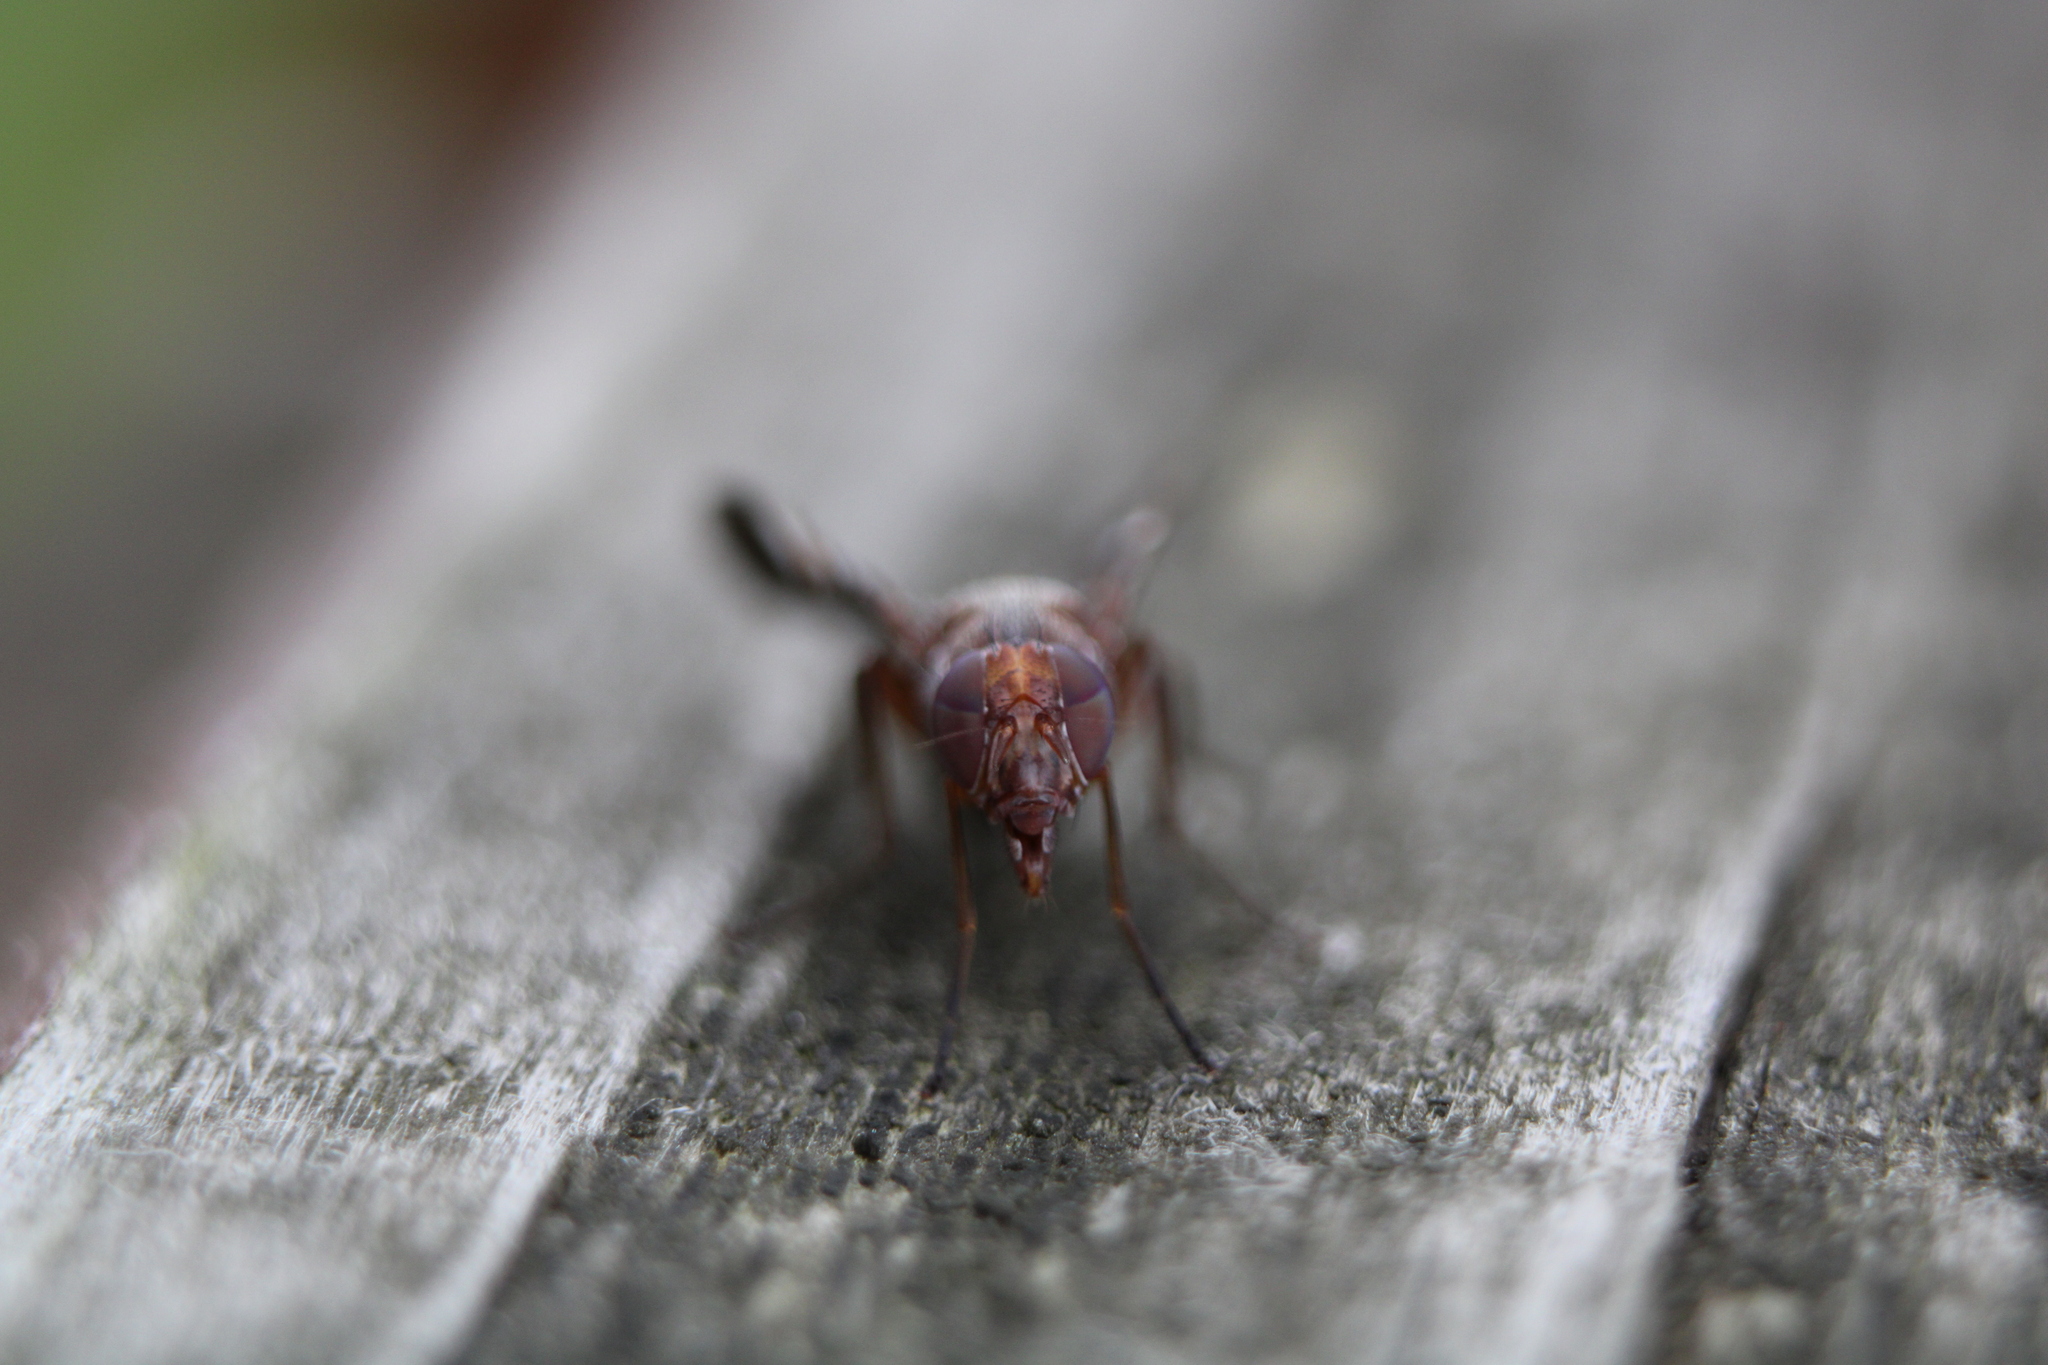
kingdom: Animalia
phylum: Arthropoda
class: Insecta
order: Diptera
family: Ulidiidae
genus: Delphinia
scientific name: Delphinia picta
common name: Common picture-winged fly
